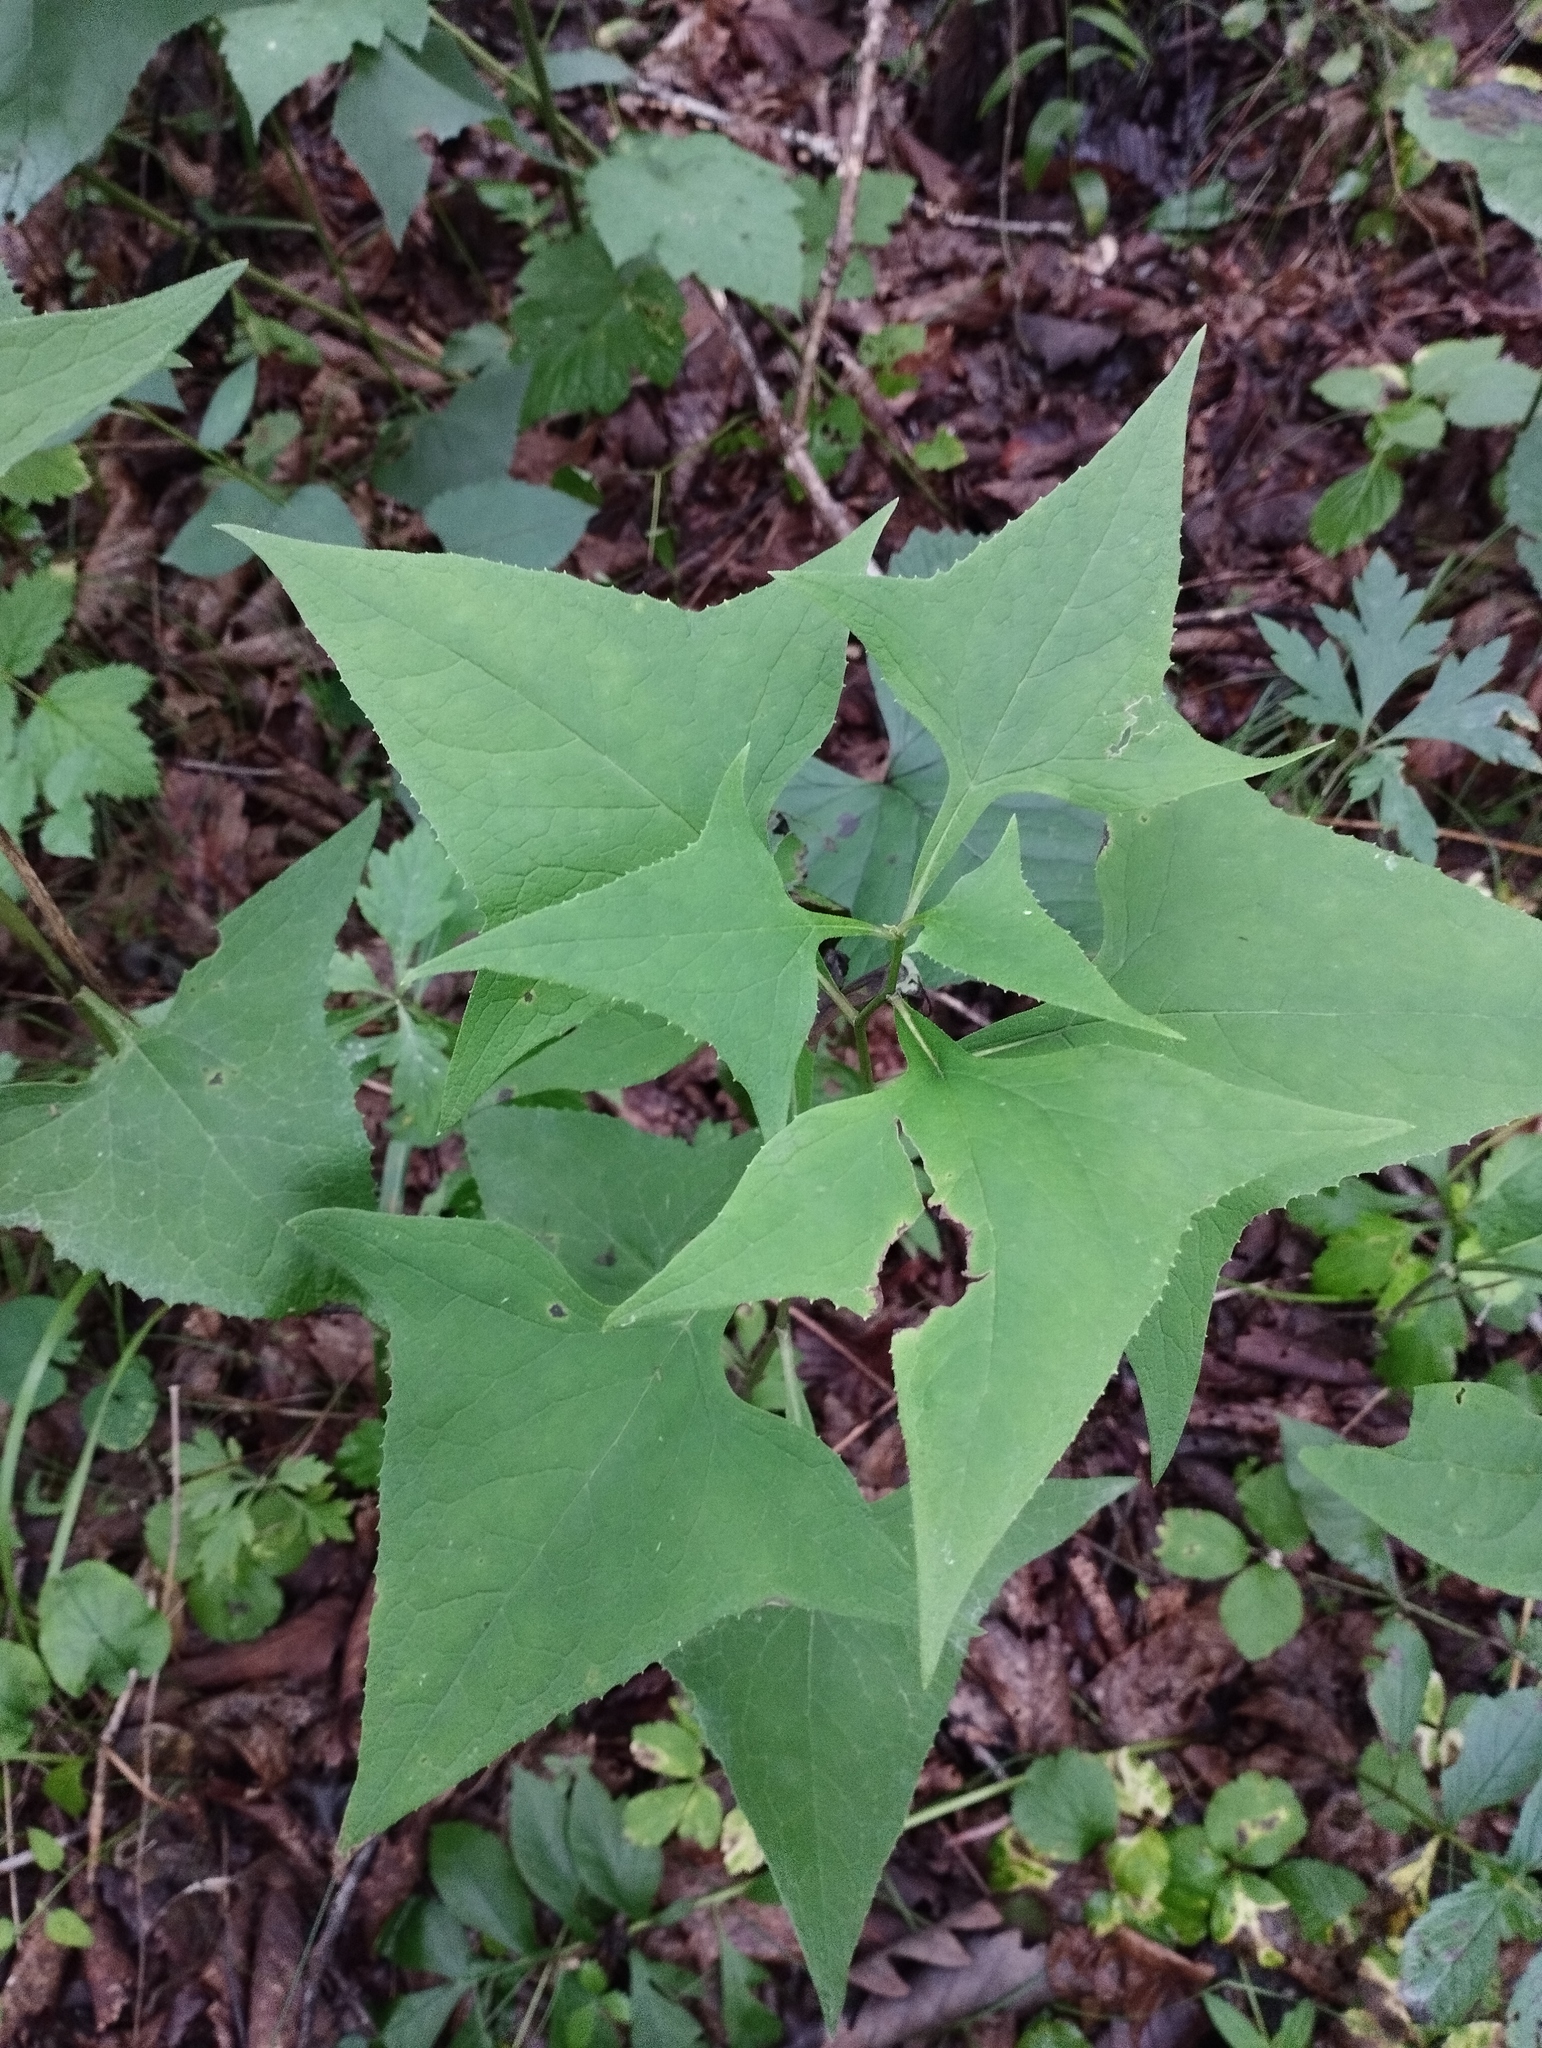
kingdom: Plantae
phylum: Tracheophyta
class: Magnoliopsida
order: Asterales
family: Asteraceae
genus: Parasenecio
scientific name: Parasenecio hastatus
